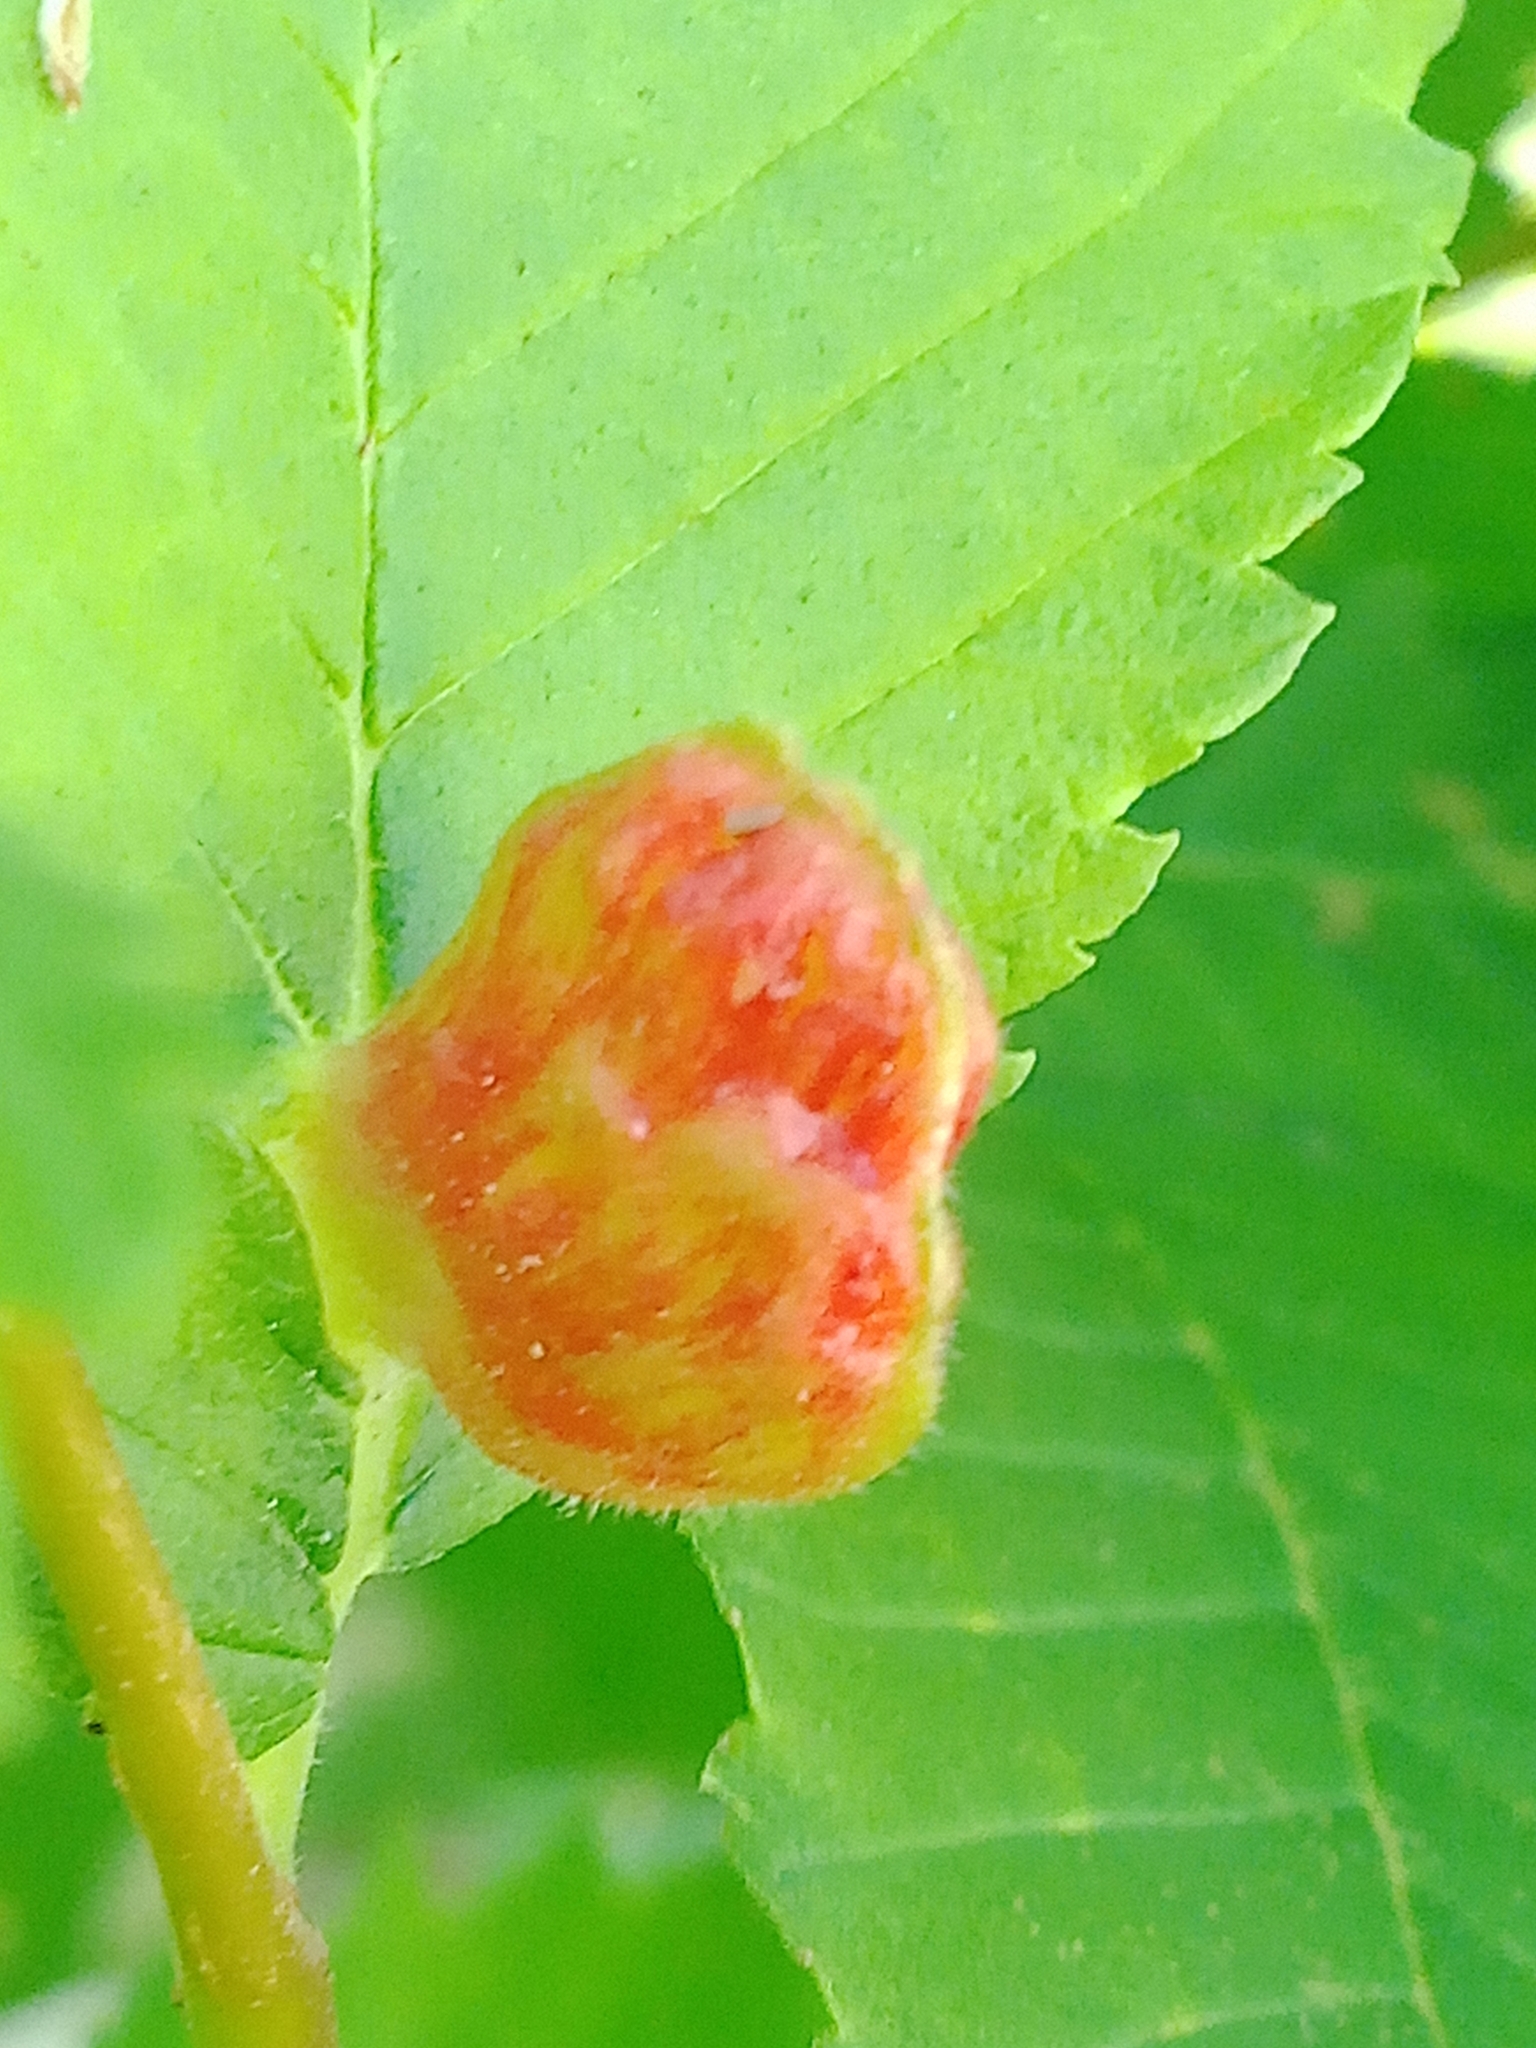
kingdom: Animalia
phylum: Arthropoda
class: Insecta
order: Hemiptera
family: Aphididae
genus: Colopha
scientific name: Colopha compressa
